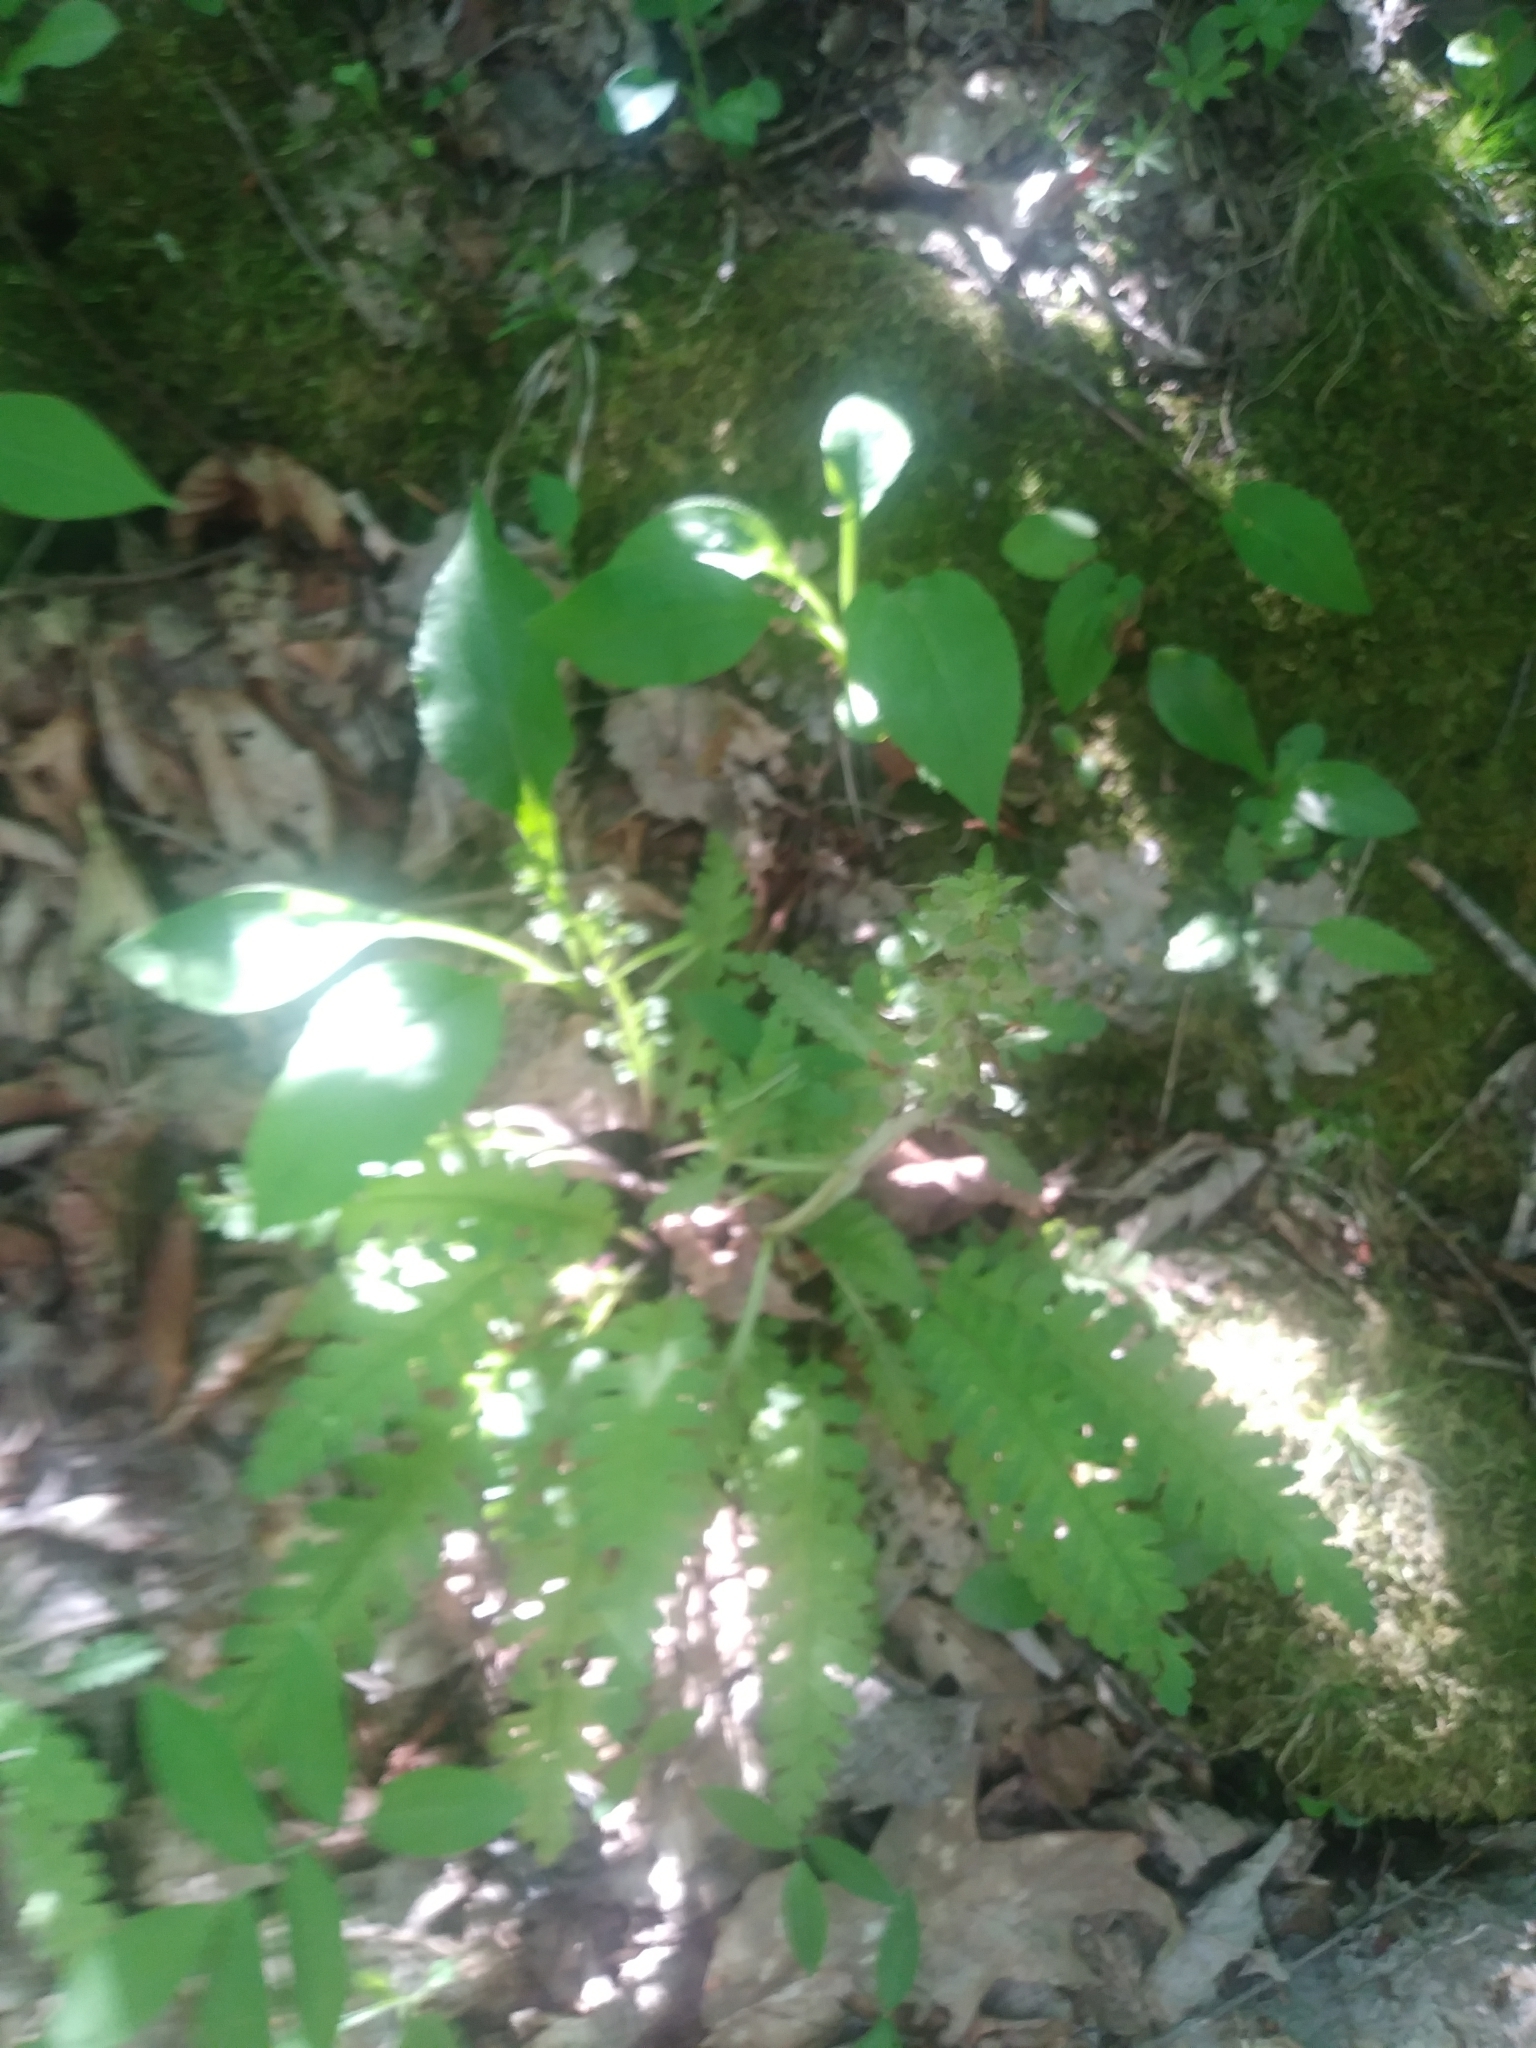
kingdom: Plantae
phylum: Tracheophyta
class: Magnoliopsida
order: Lamiales
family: Orobanchaceae
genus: Pedicularis
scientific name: Pedicularis canadensis
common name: Early lousewort
